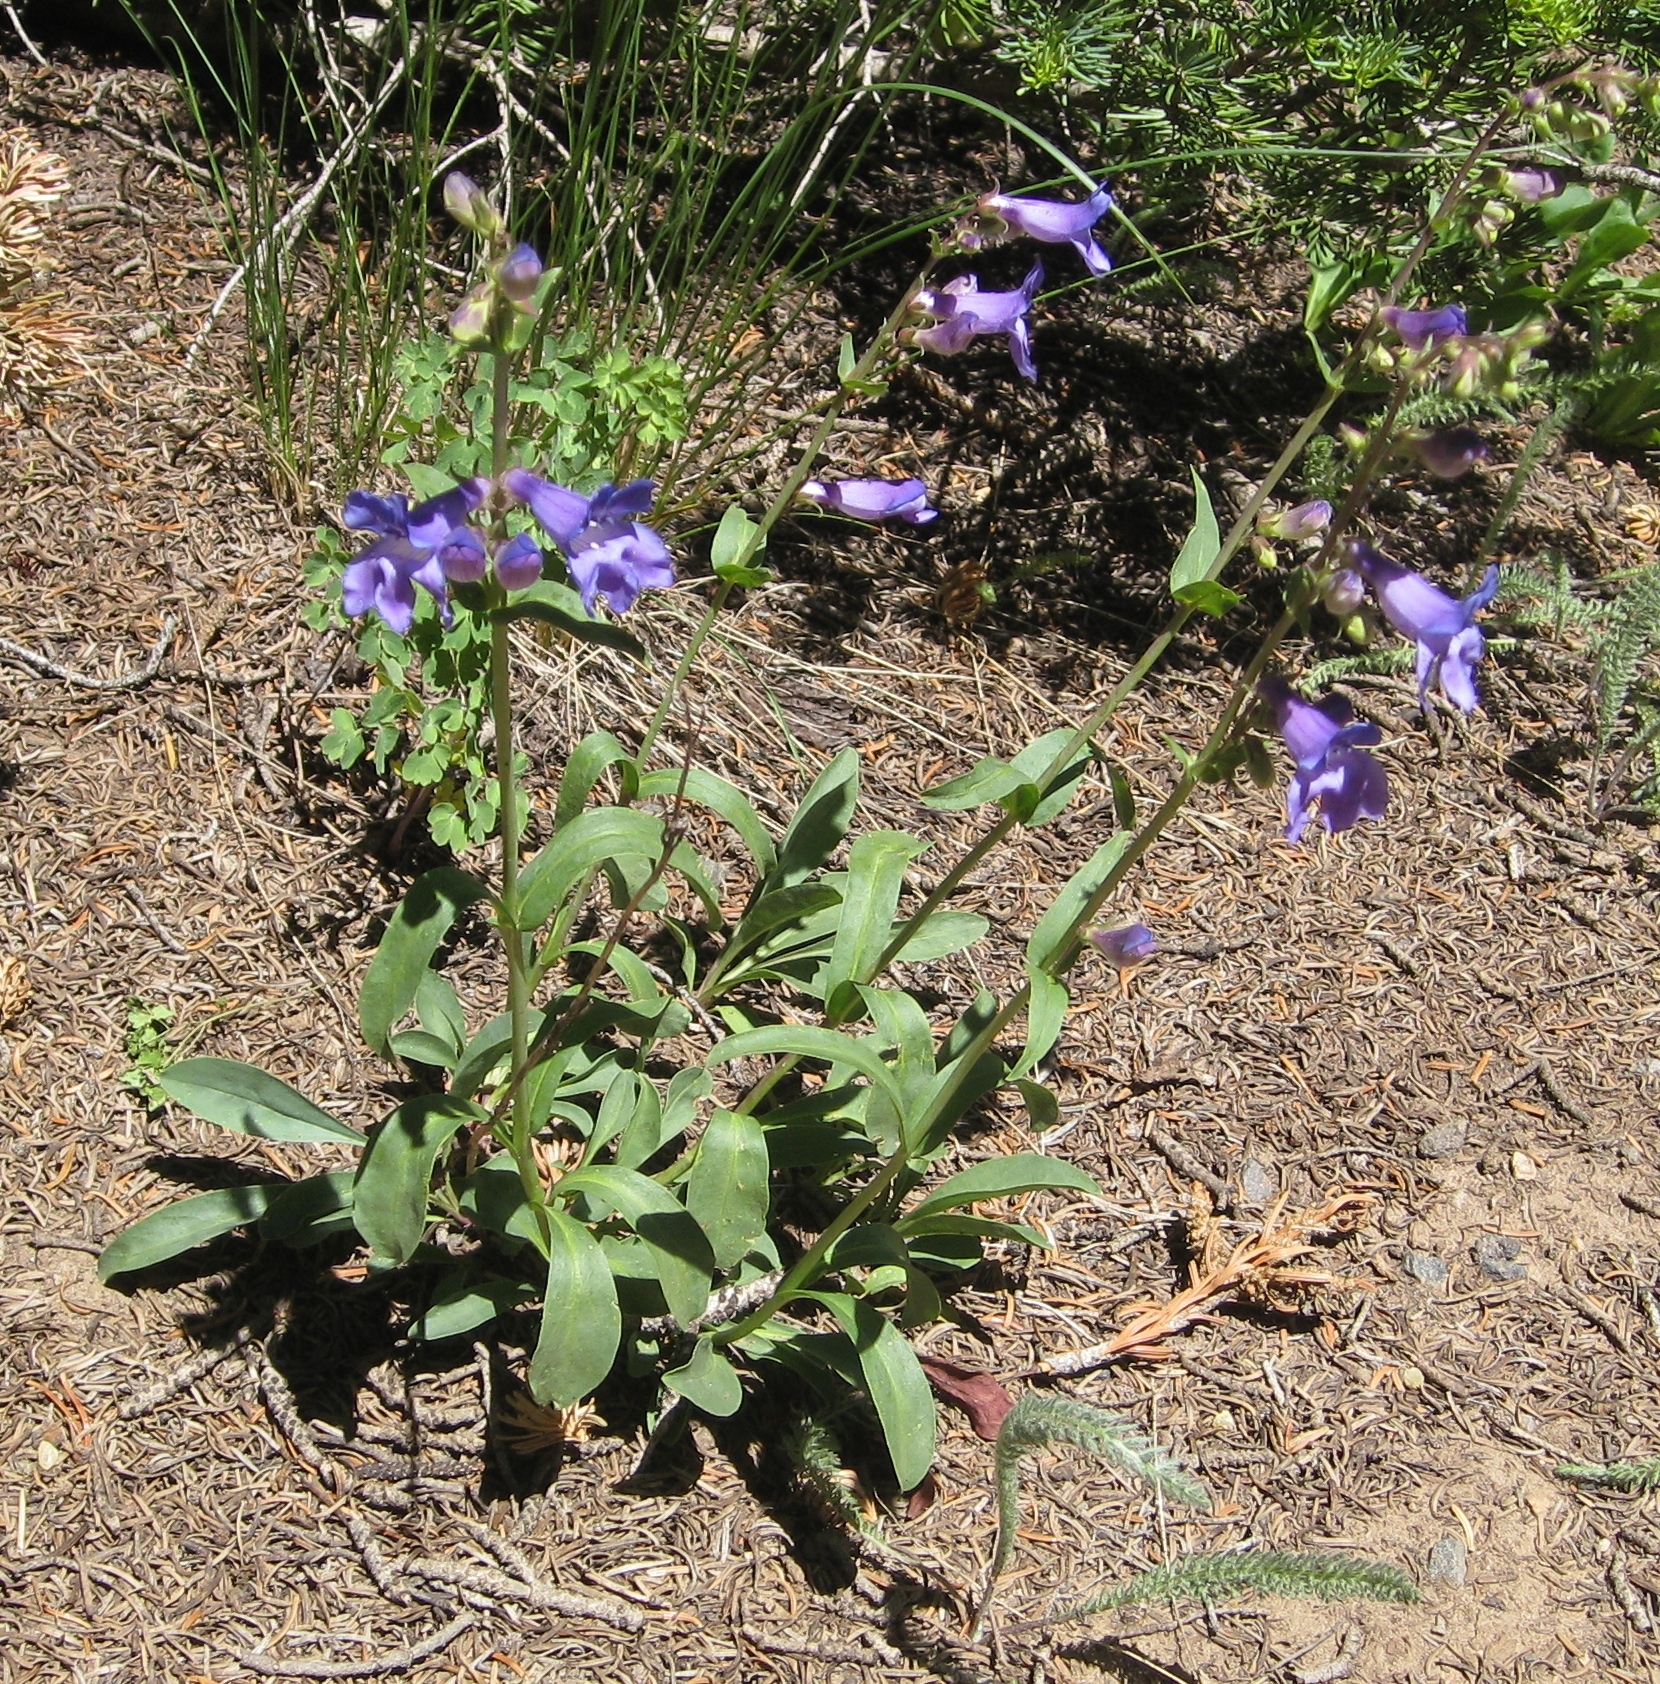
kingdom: Plantae
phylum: Tracheophyta
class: Magnoliopsida
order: Lamiales
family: Plantaginaceae
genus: Penstemon
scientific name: Penstemon leiophyllus
